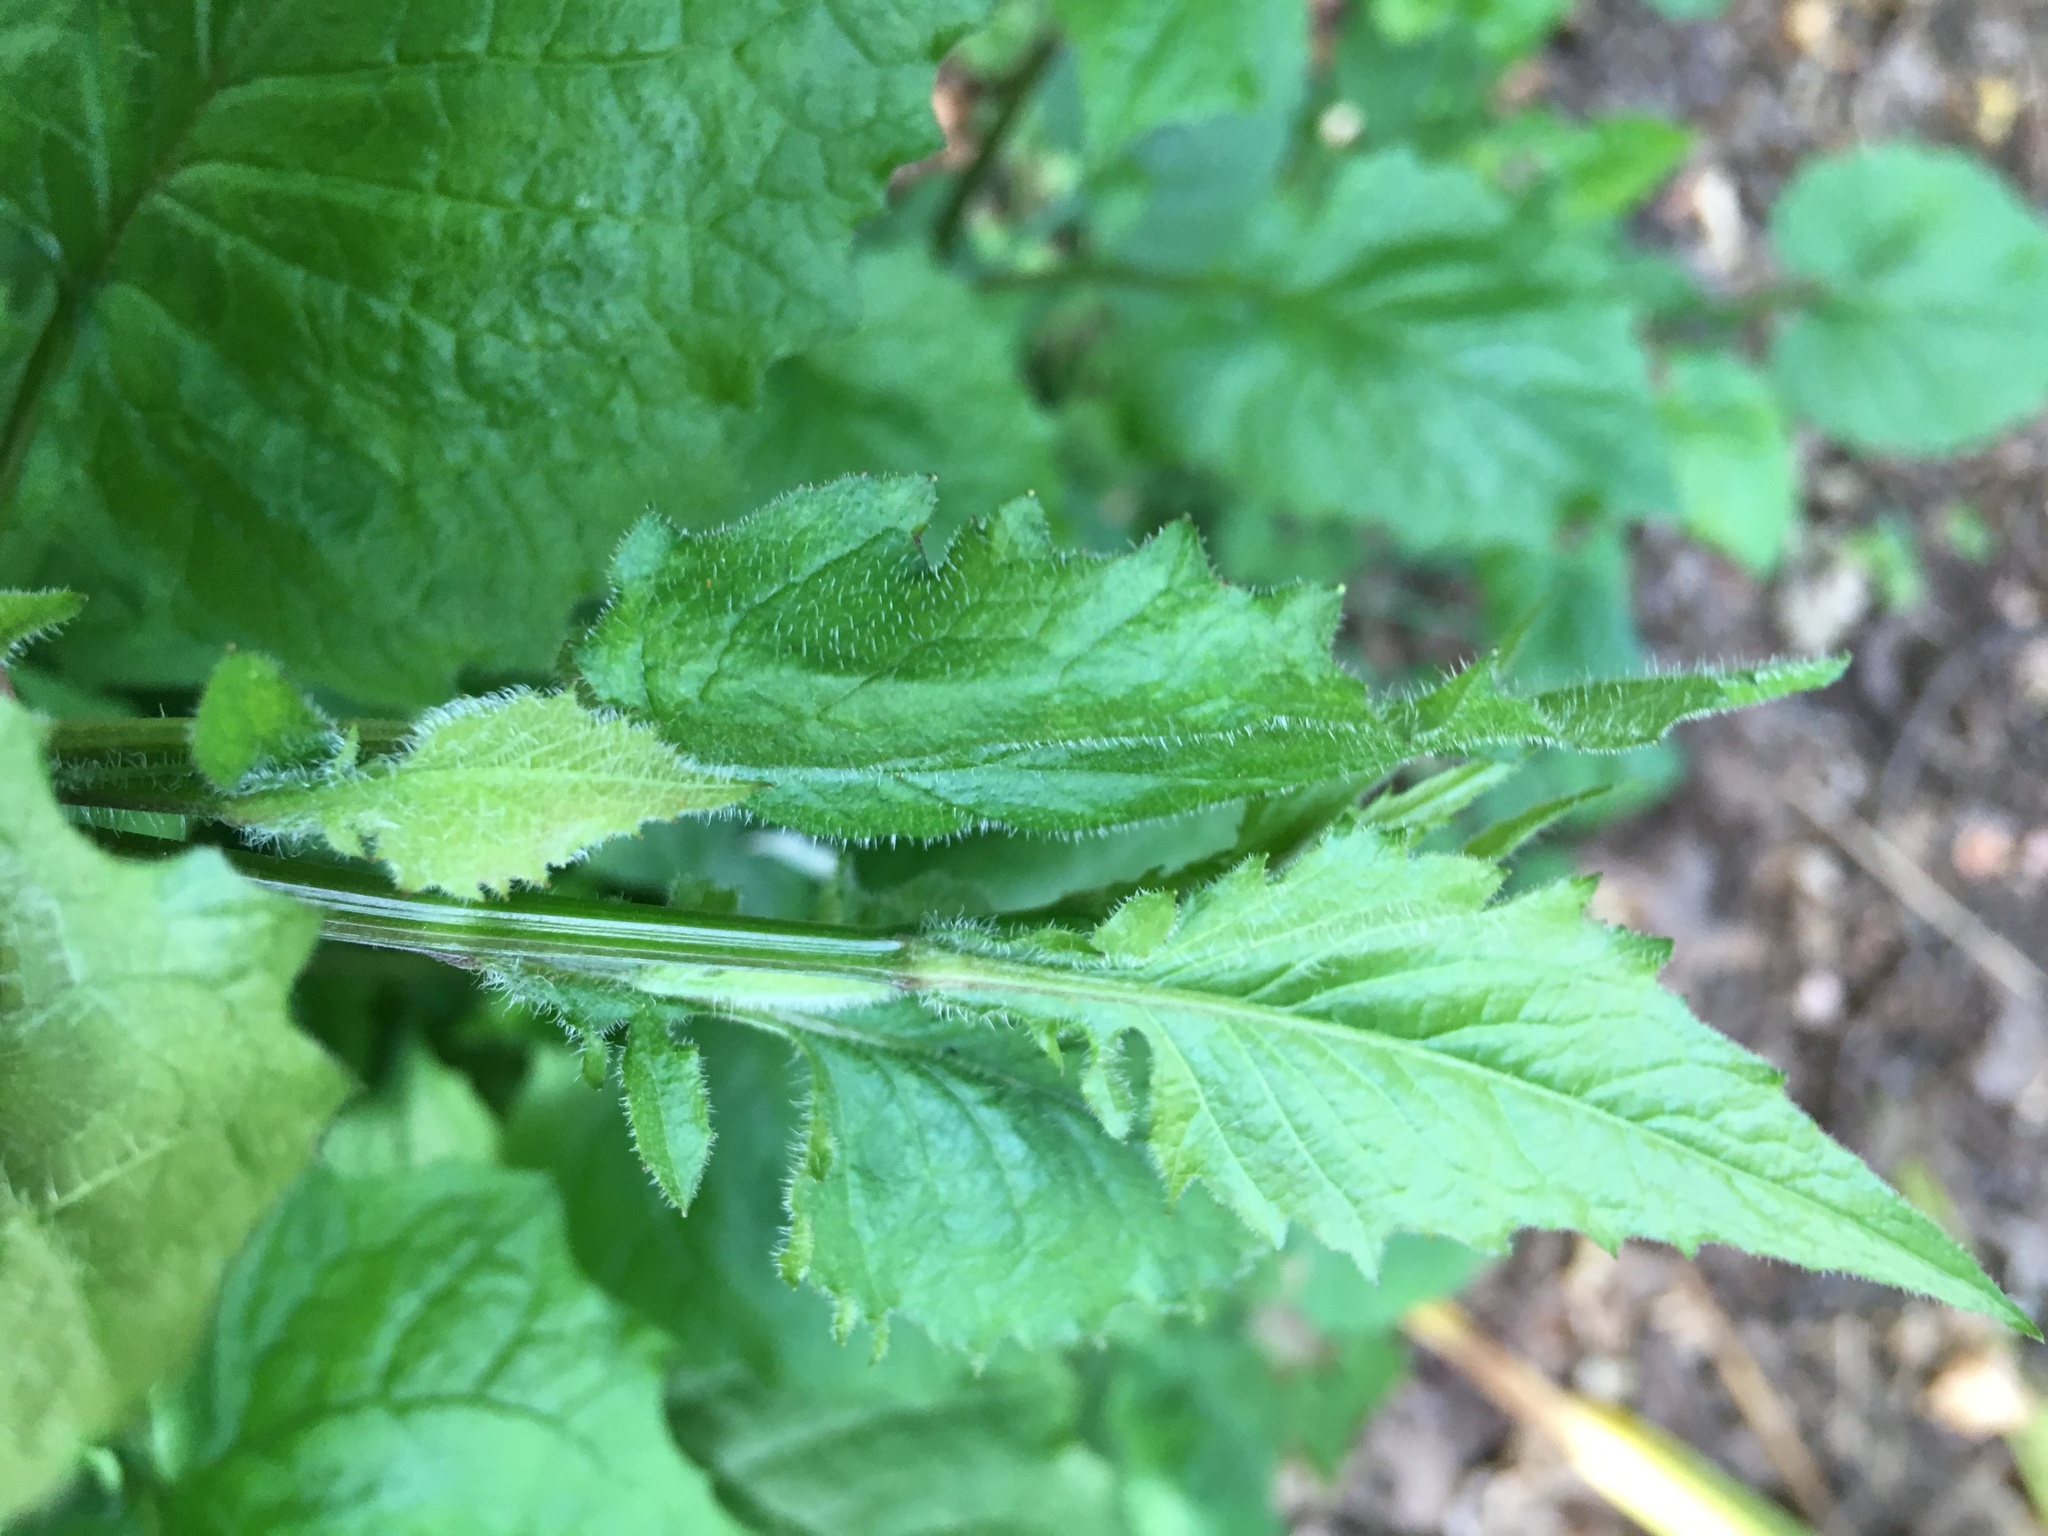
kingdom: Plantae
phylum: Tracheophyta
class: Magnoliopsida
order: Asterales
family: Asteraceae
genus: Lapsana
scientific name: Lapsana communis
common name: Nipplewort
